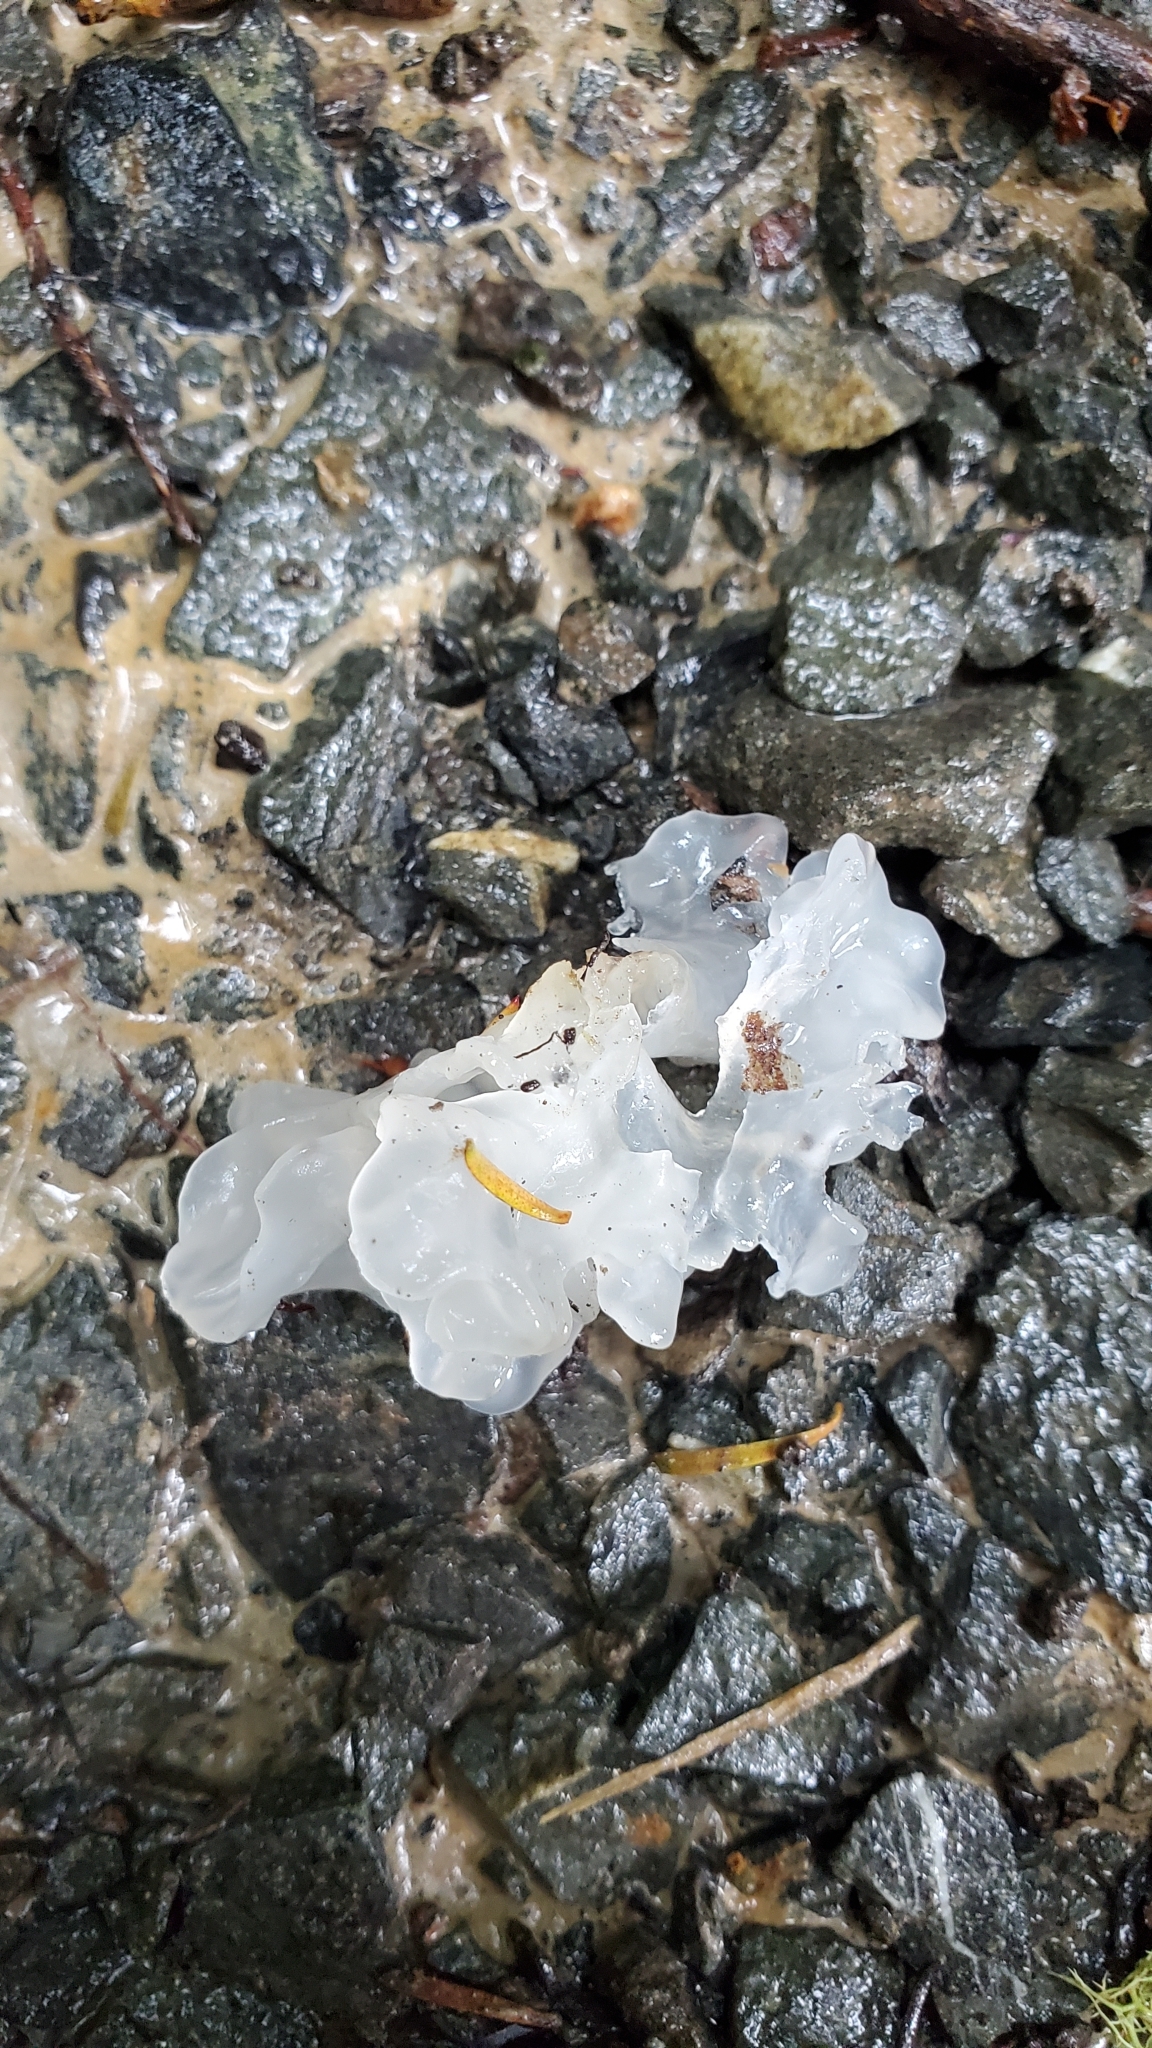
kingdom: Fungi
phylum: Basidiomycota
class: Tremellomycetes
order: Tremellales
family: Tremellaceae
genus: Tremella
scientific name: Tremella fuciformis
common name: Snow fungus
